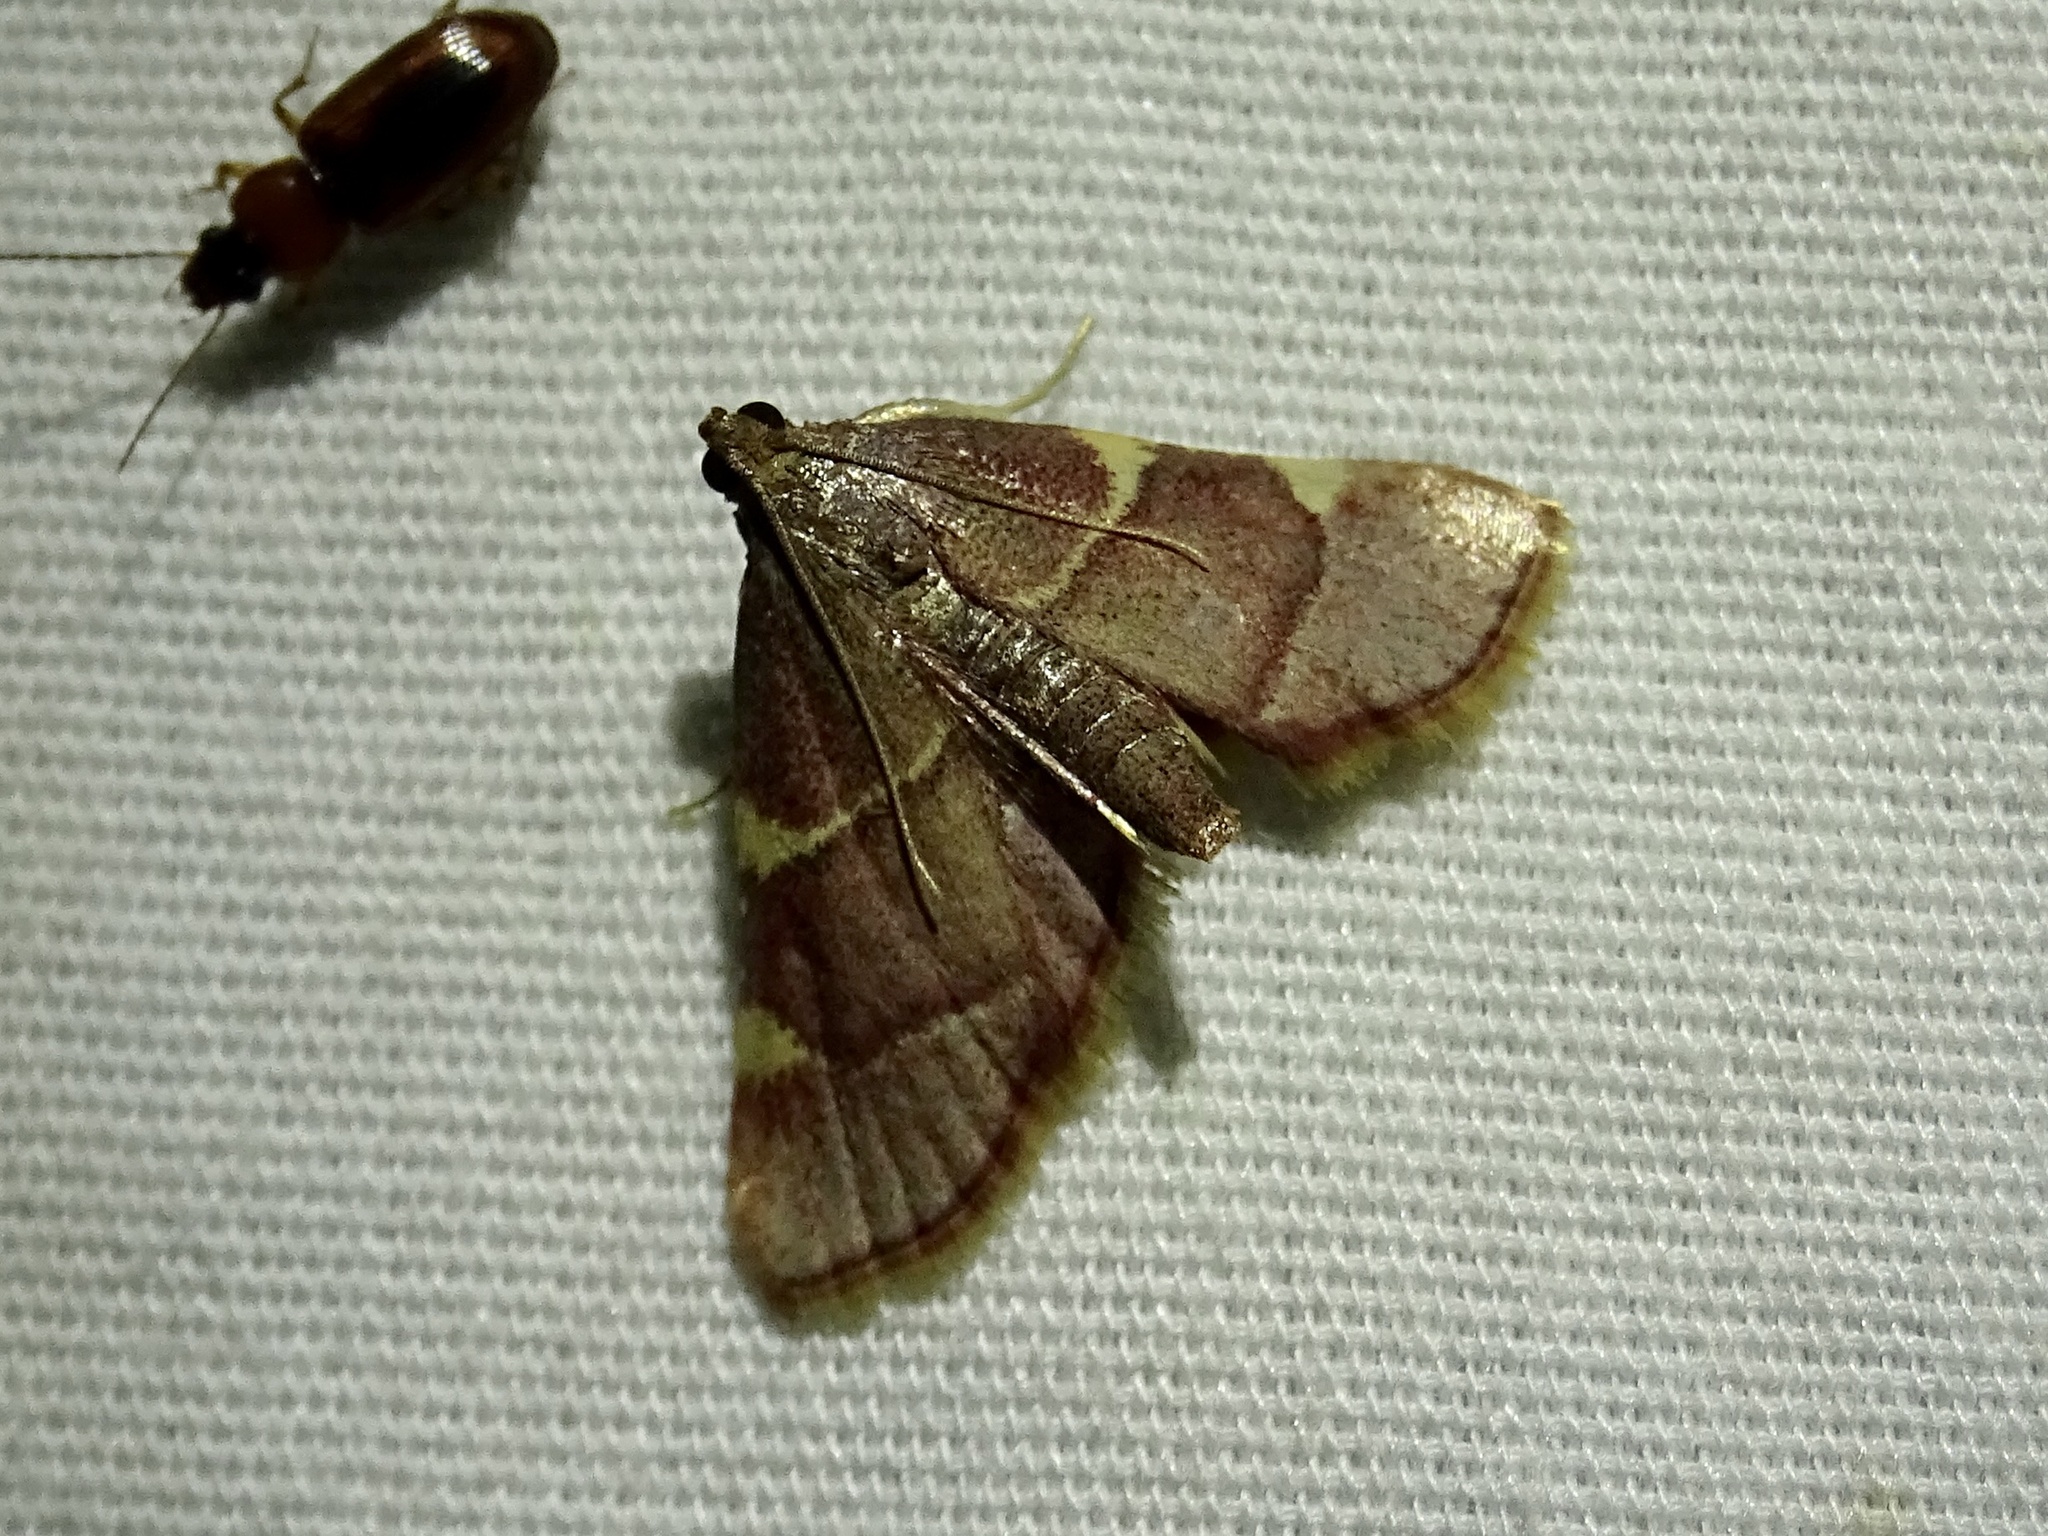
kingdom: Animalia
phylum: Arthropoda
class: Insecta
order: Lepidoptera
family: Pyralidae
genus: Hypsopygia
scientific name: Hypsopygia olinalis
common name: Yellow-fringed dolichomia moth
